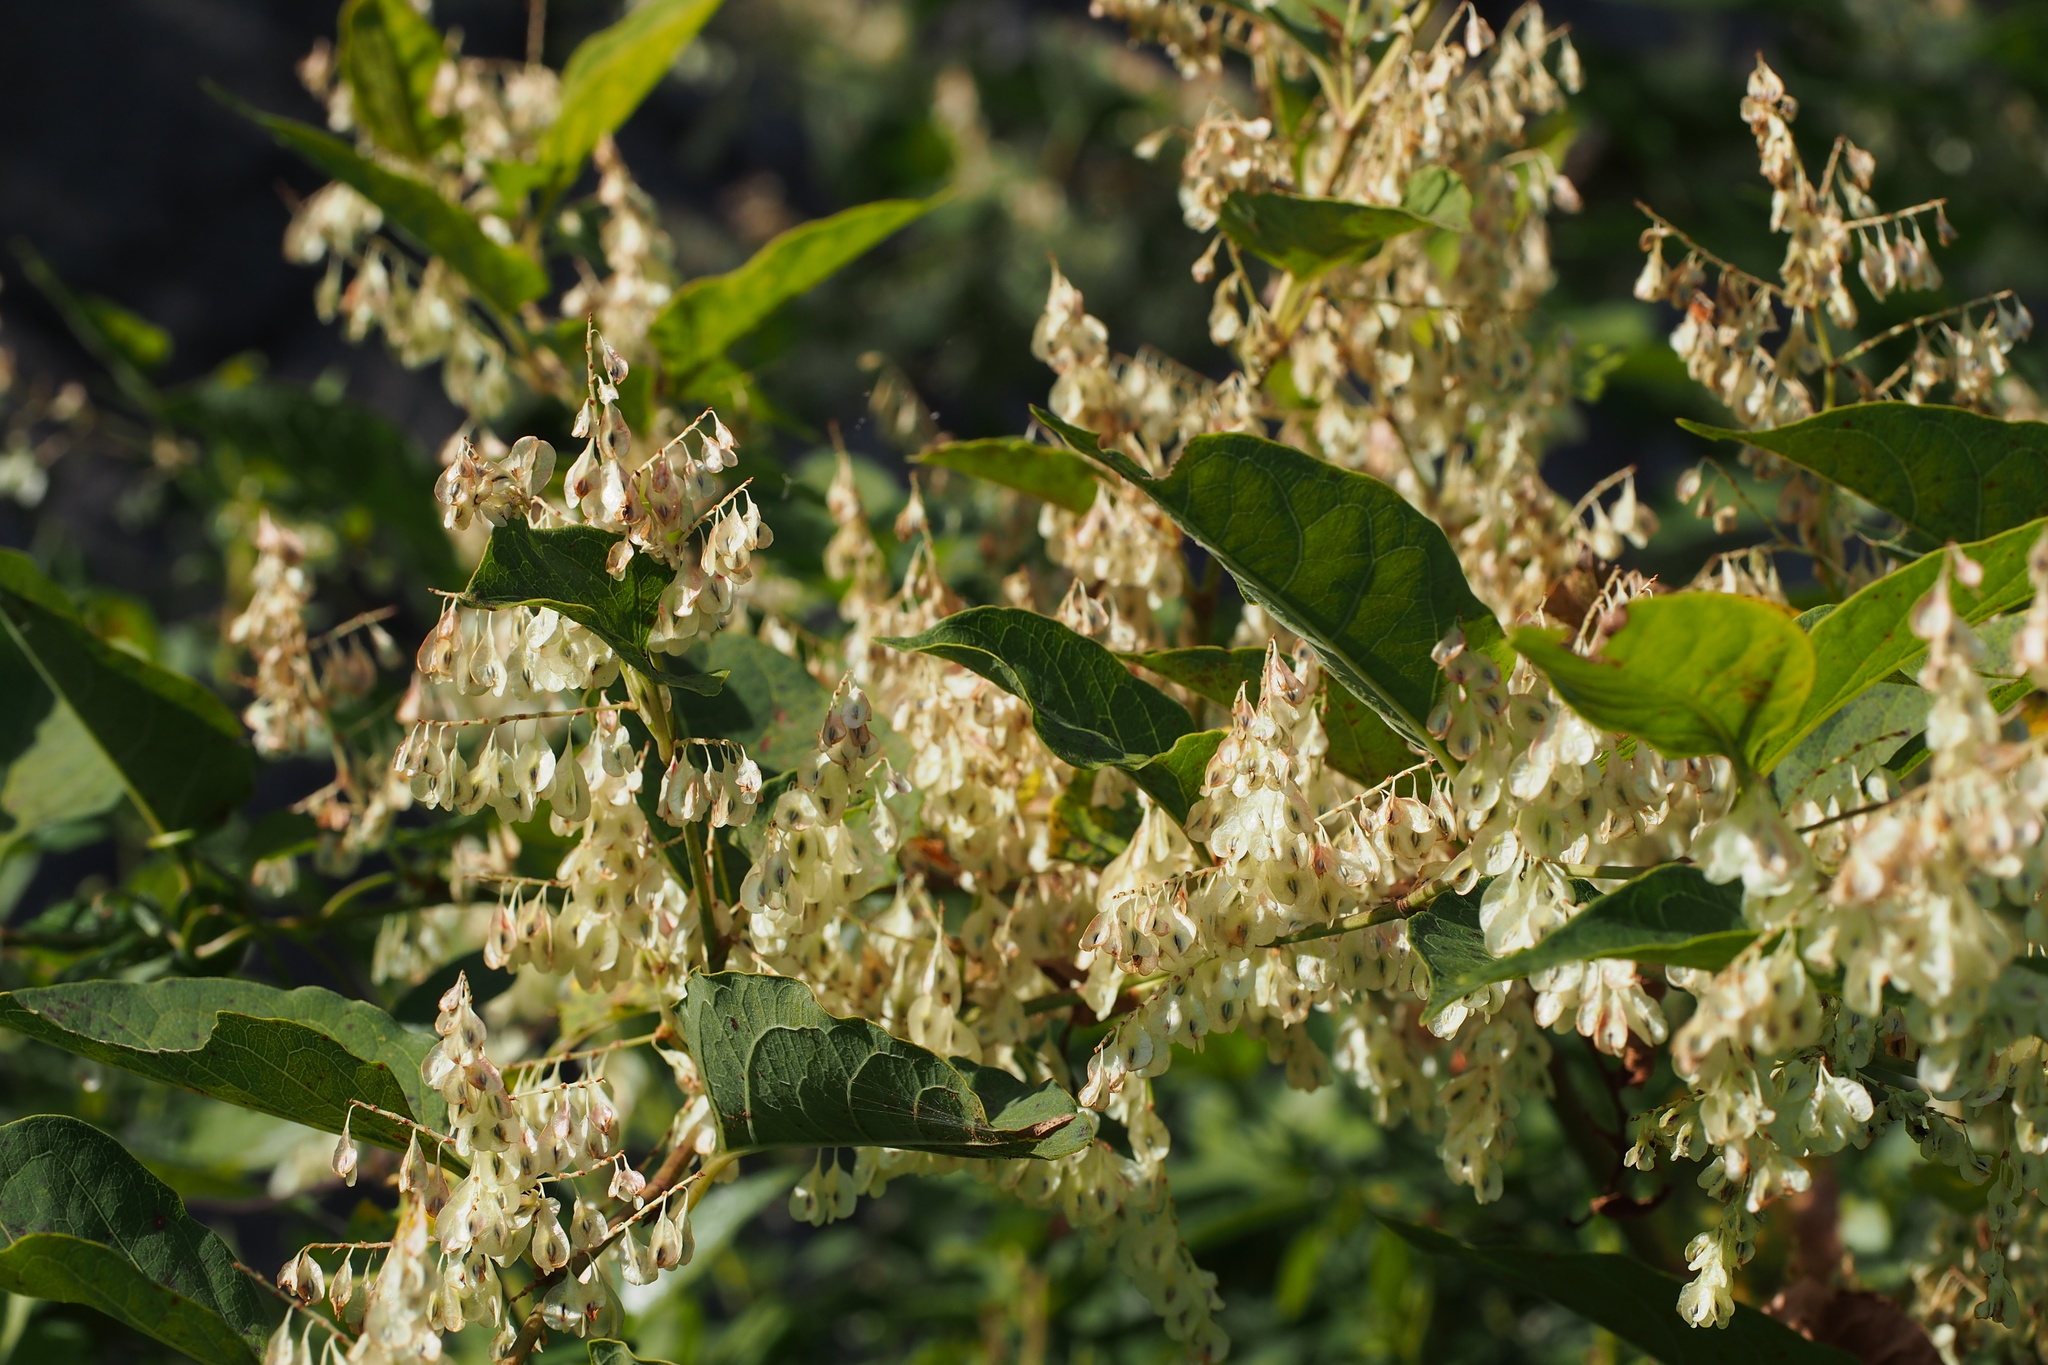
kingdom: Plantae
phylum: Tracheophyta
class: Magnoliopsida
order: Caryophyllales
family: Polygonaceae
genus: Reynoutria
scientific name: Reynoutria japonica
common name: Japanese knotweed
